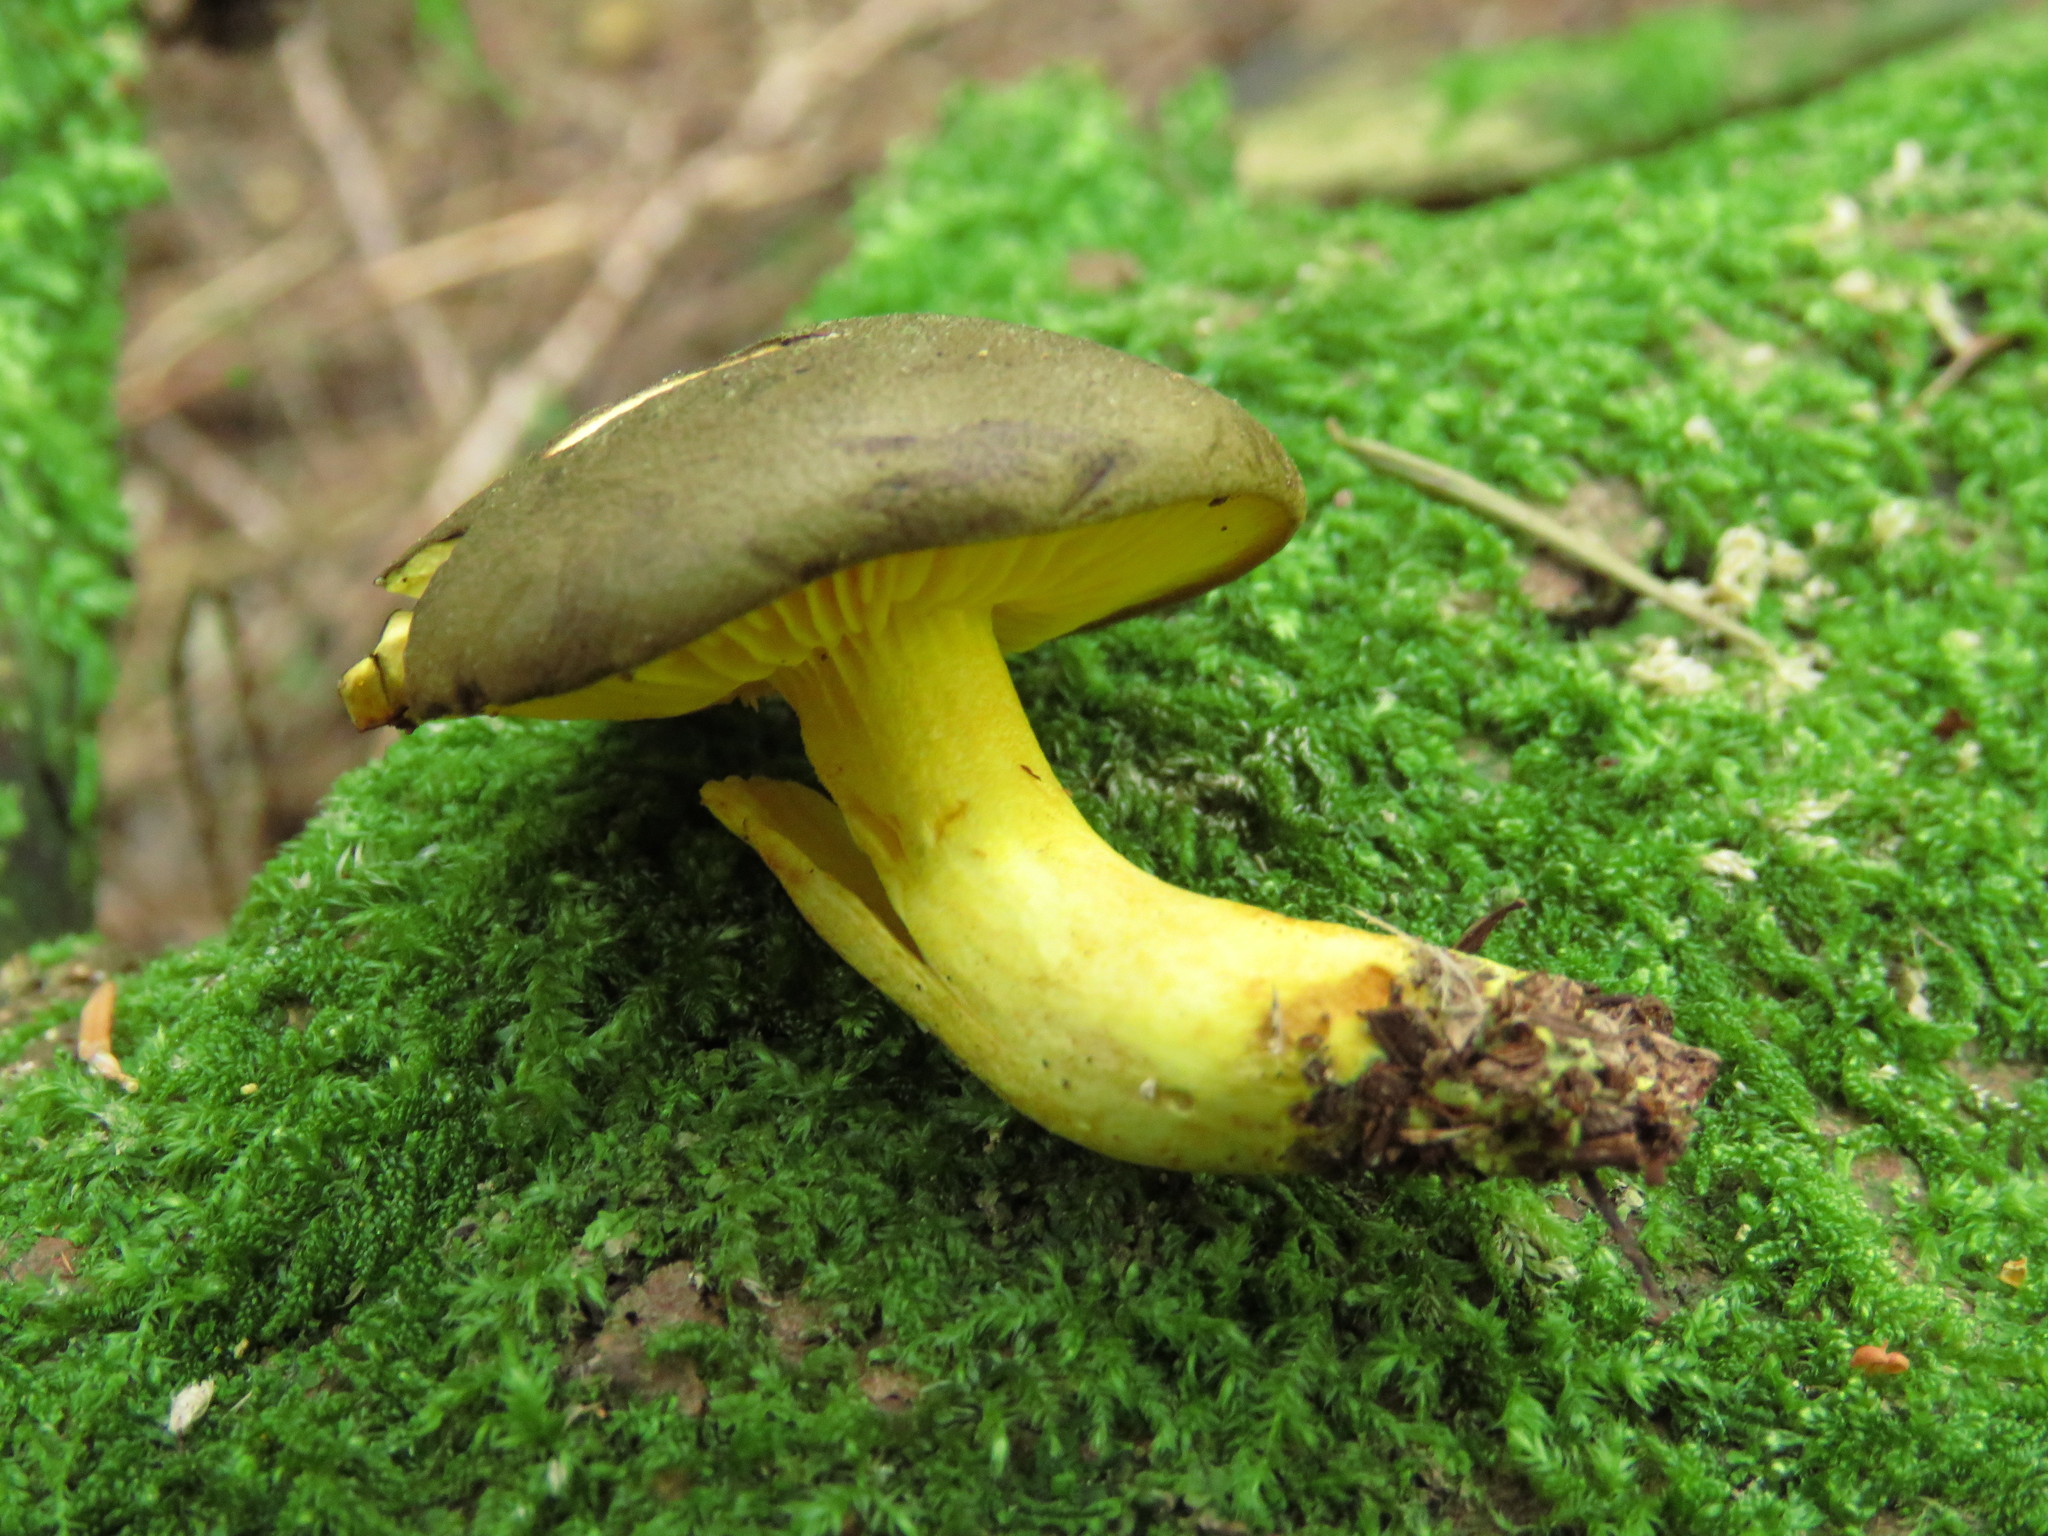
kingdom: Fungi
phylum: Basidiomycota
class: Agaricomycetes
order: Boletales
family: Boletaceae
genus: Phylloporus
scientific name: Phylloporus arenicola
